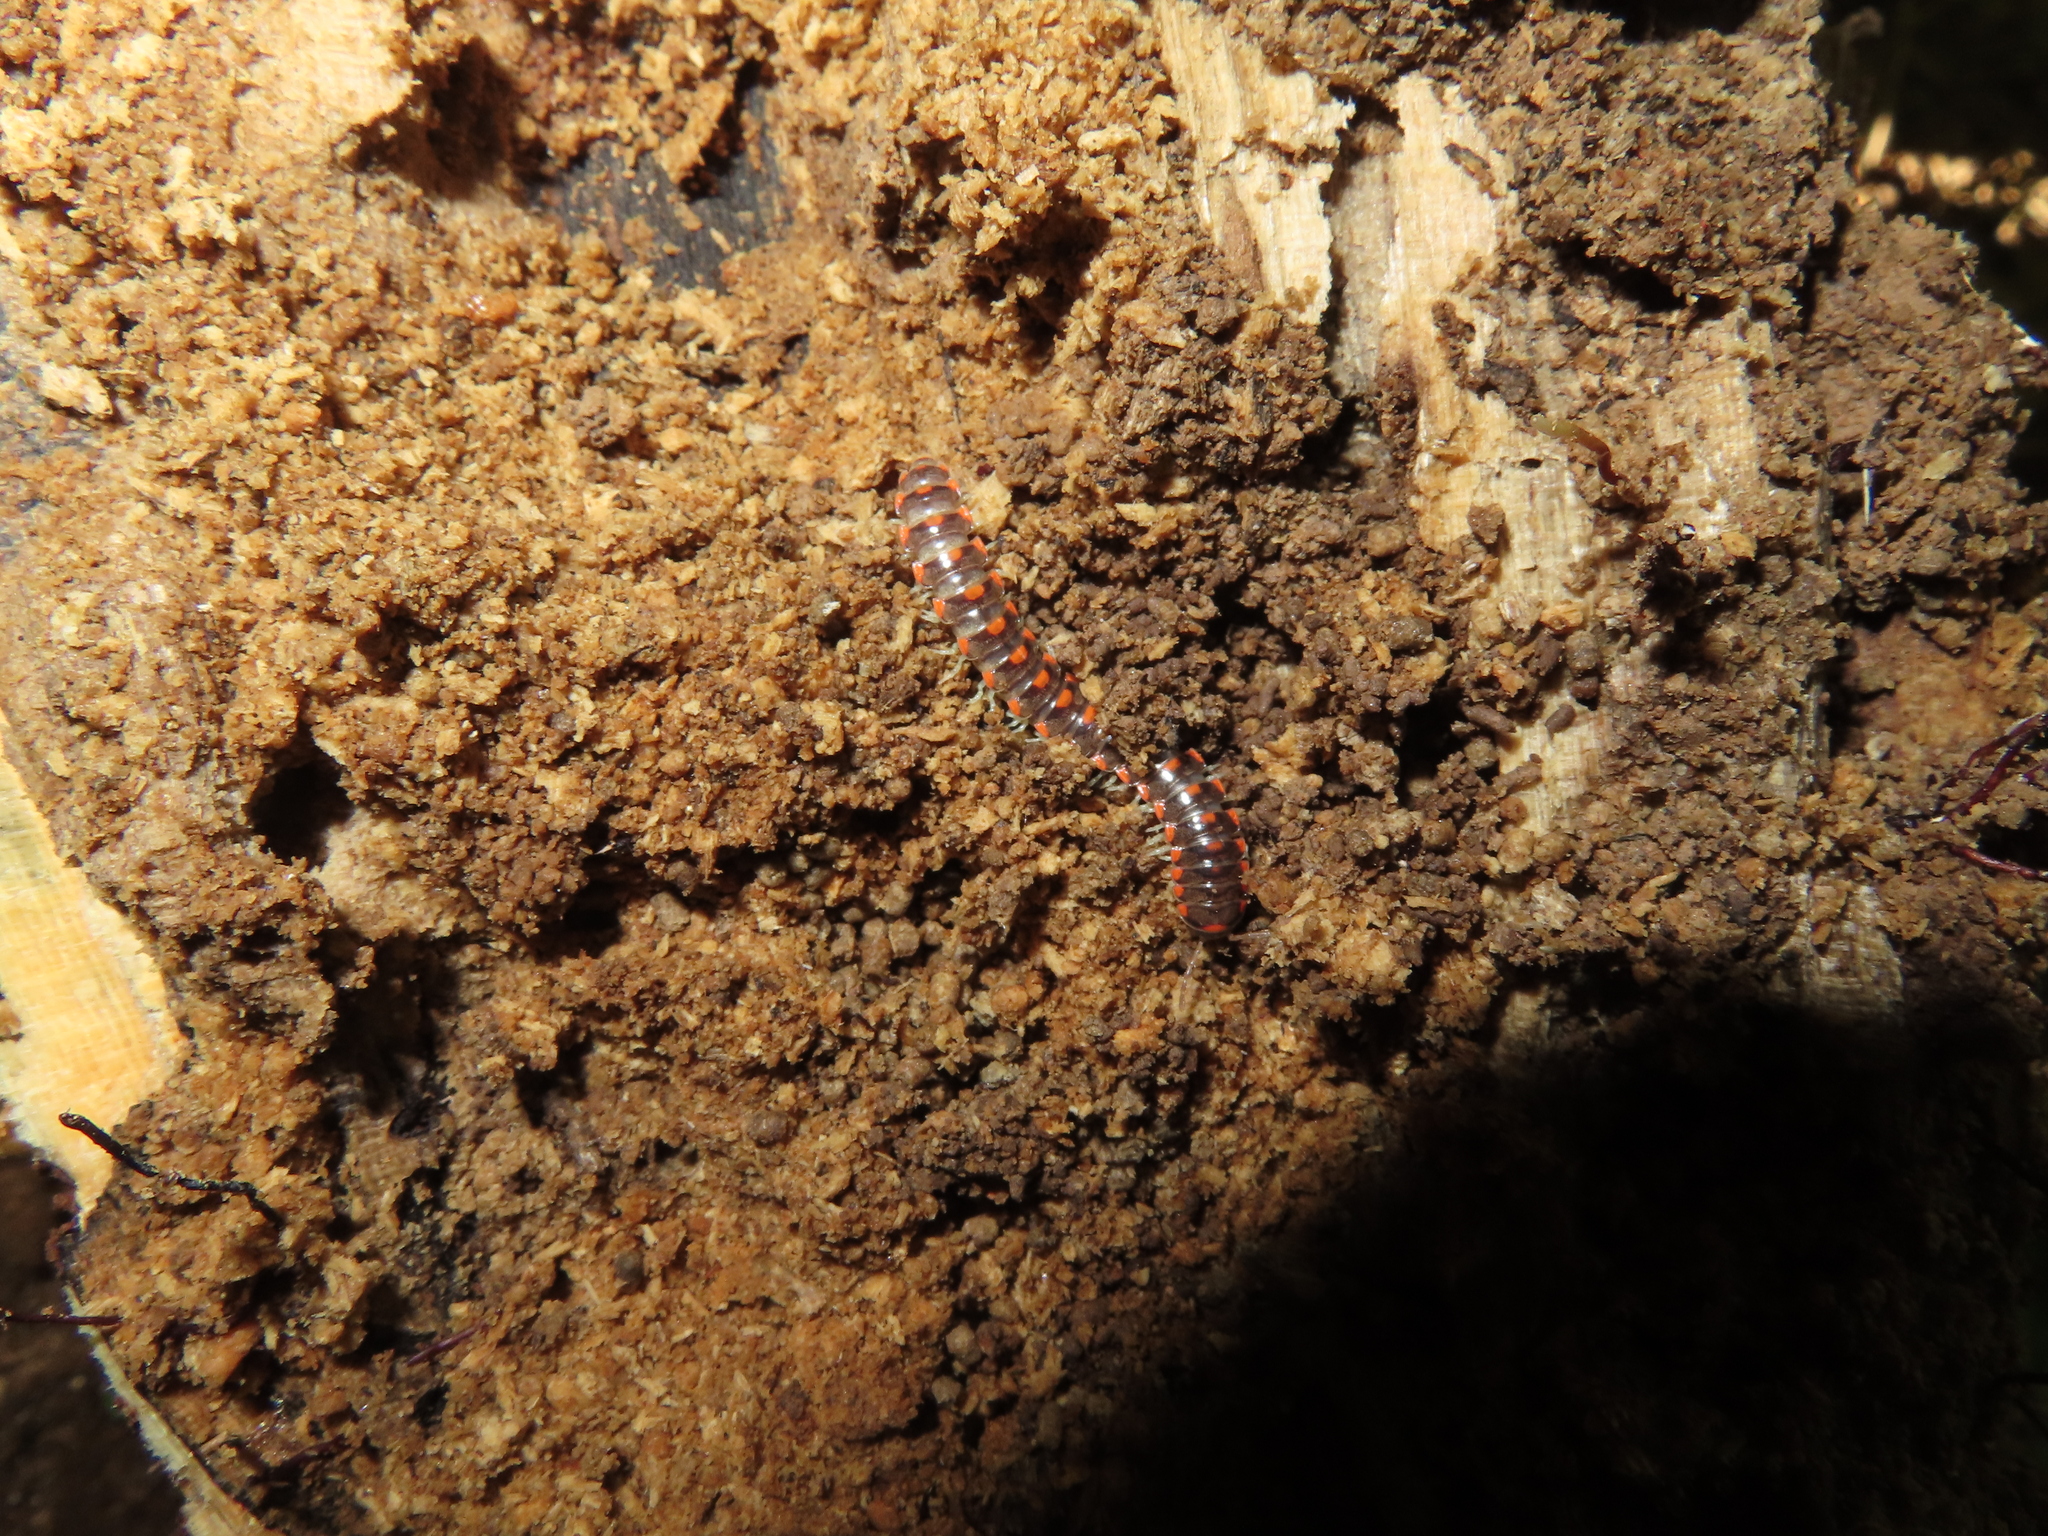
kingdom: Animalia
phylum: Arthropoda
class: Diplopoda
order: Polydesmida
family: Xystodesmidae
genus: Euryurus
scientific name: Euryurus leachii
